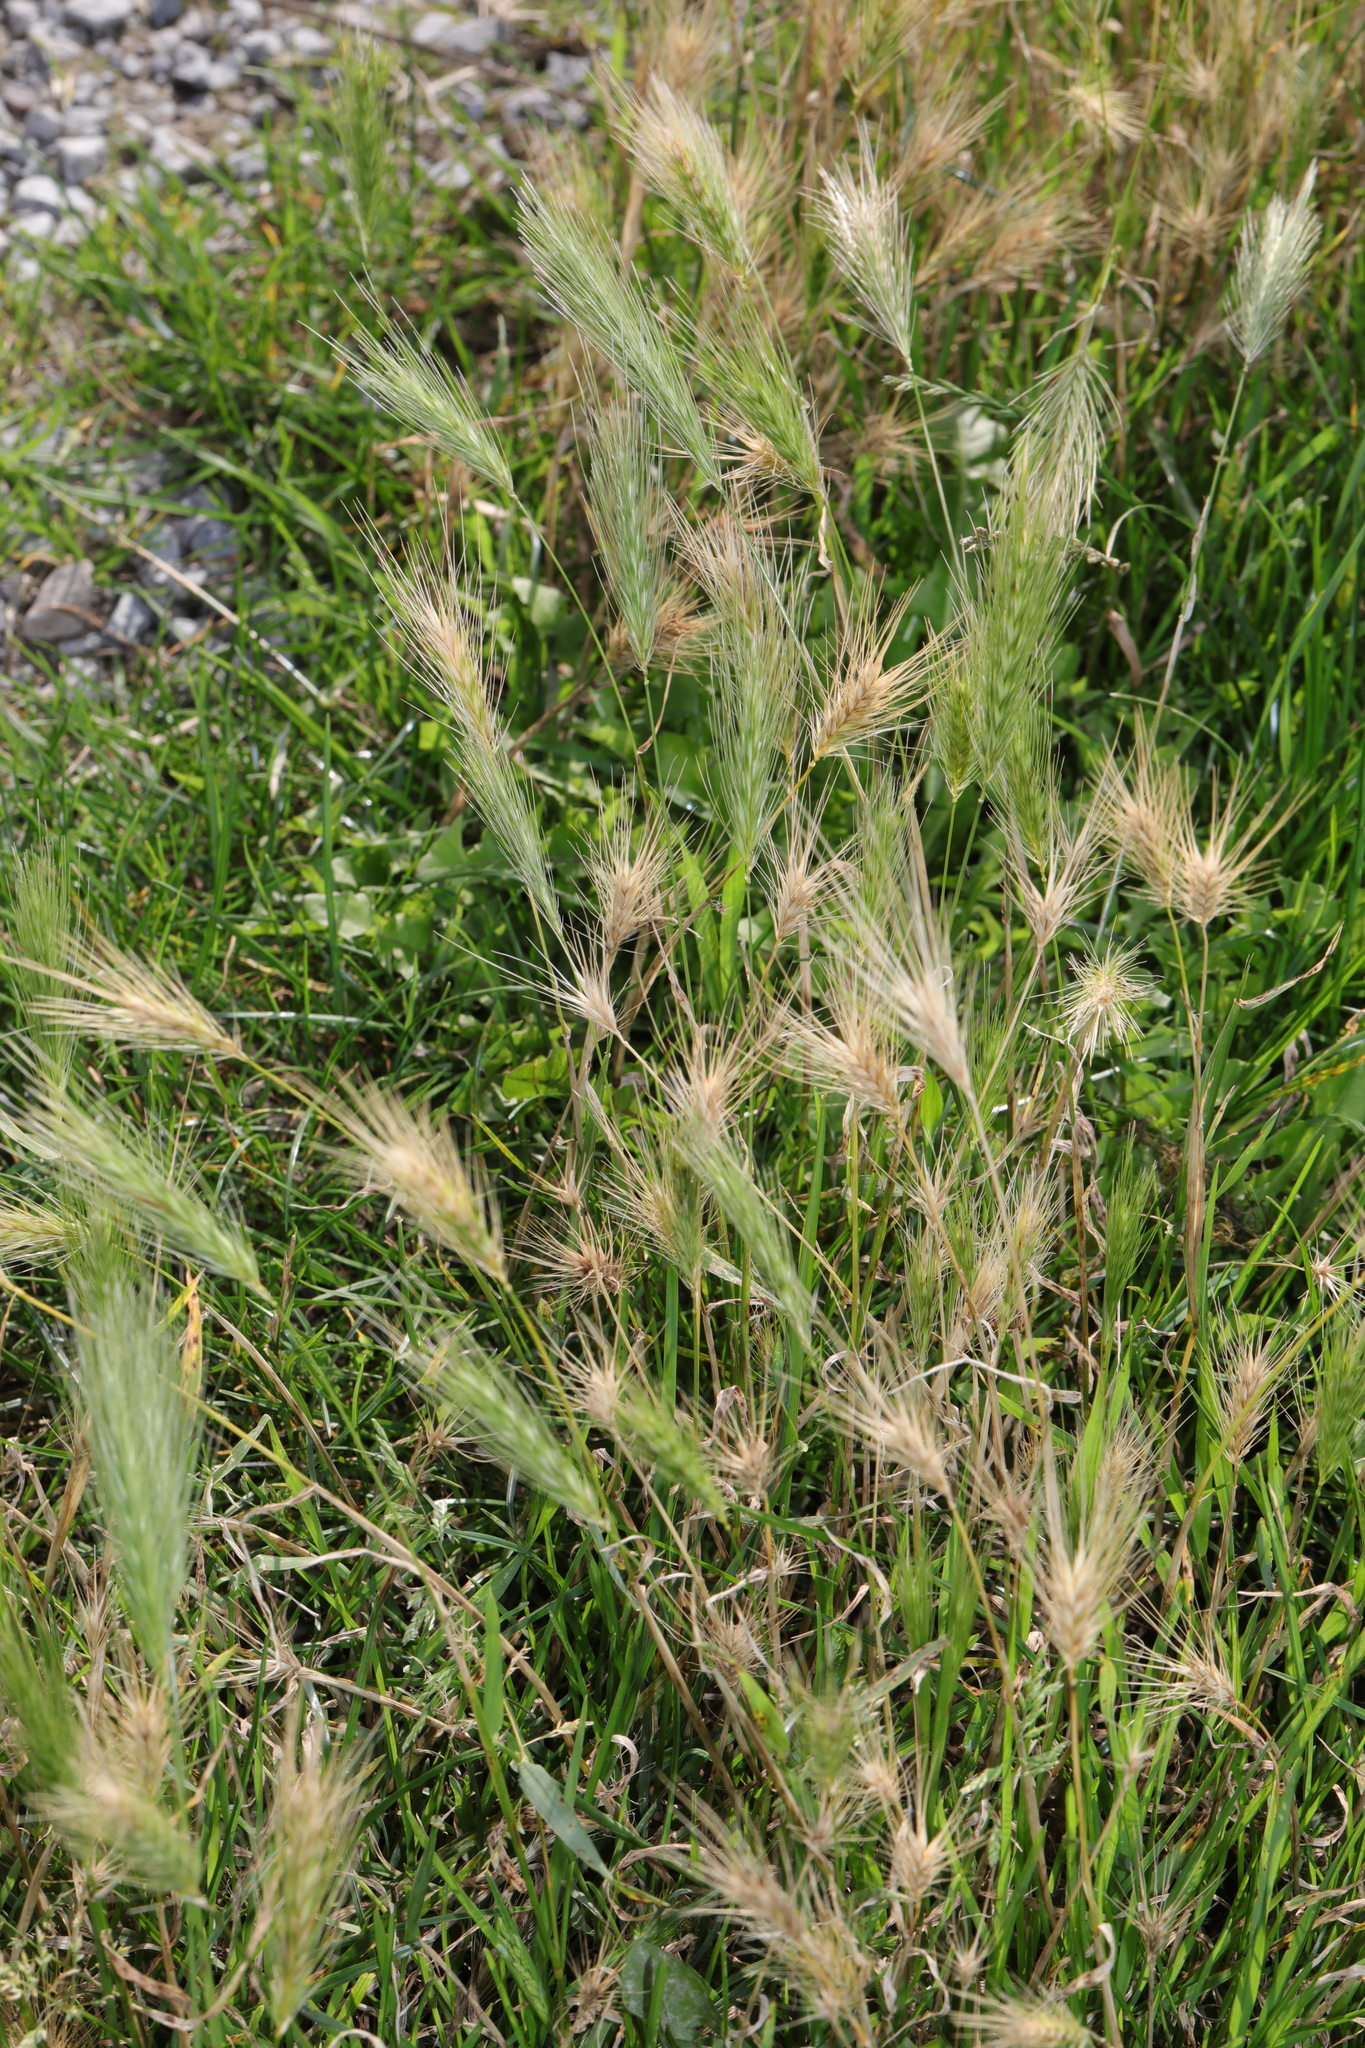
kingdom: Plantae
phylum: Tracheophyta
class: Liliopsida
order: Poales
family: Poaceae
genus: Hordeum
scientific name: Hordeum murinum
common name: Wall barley
